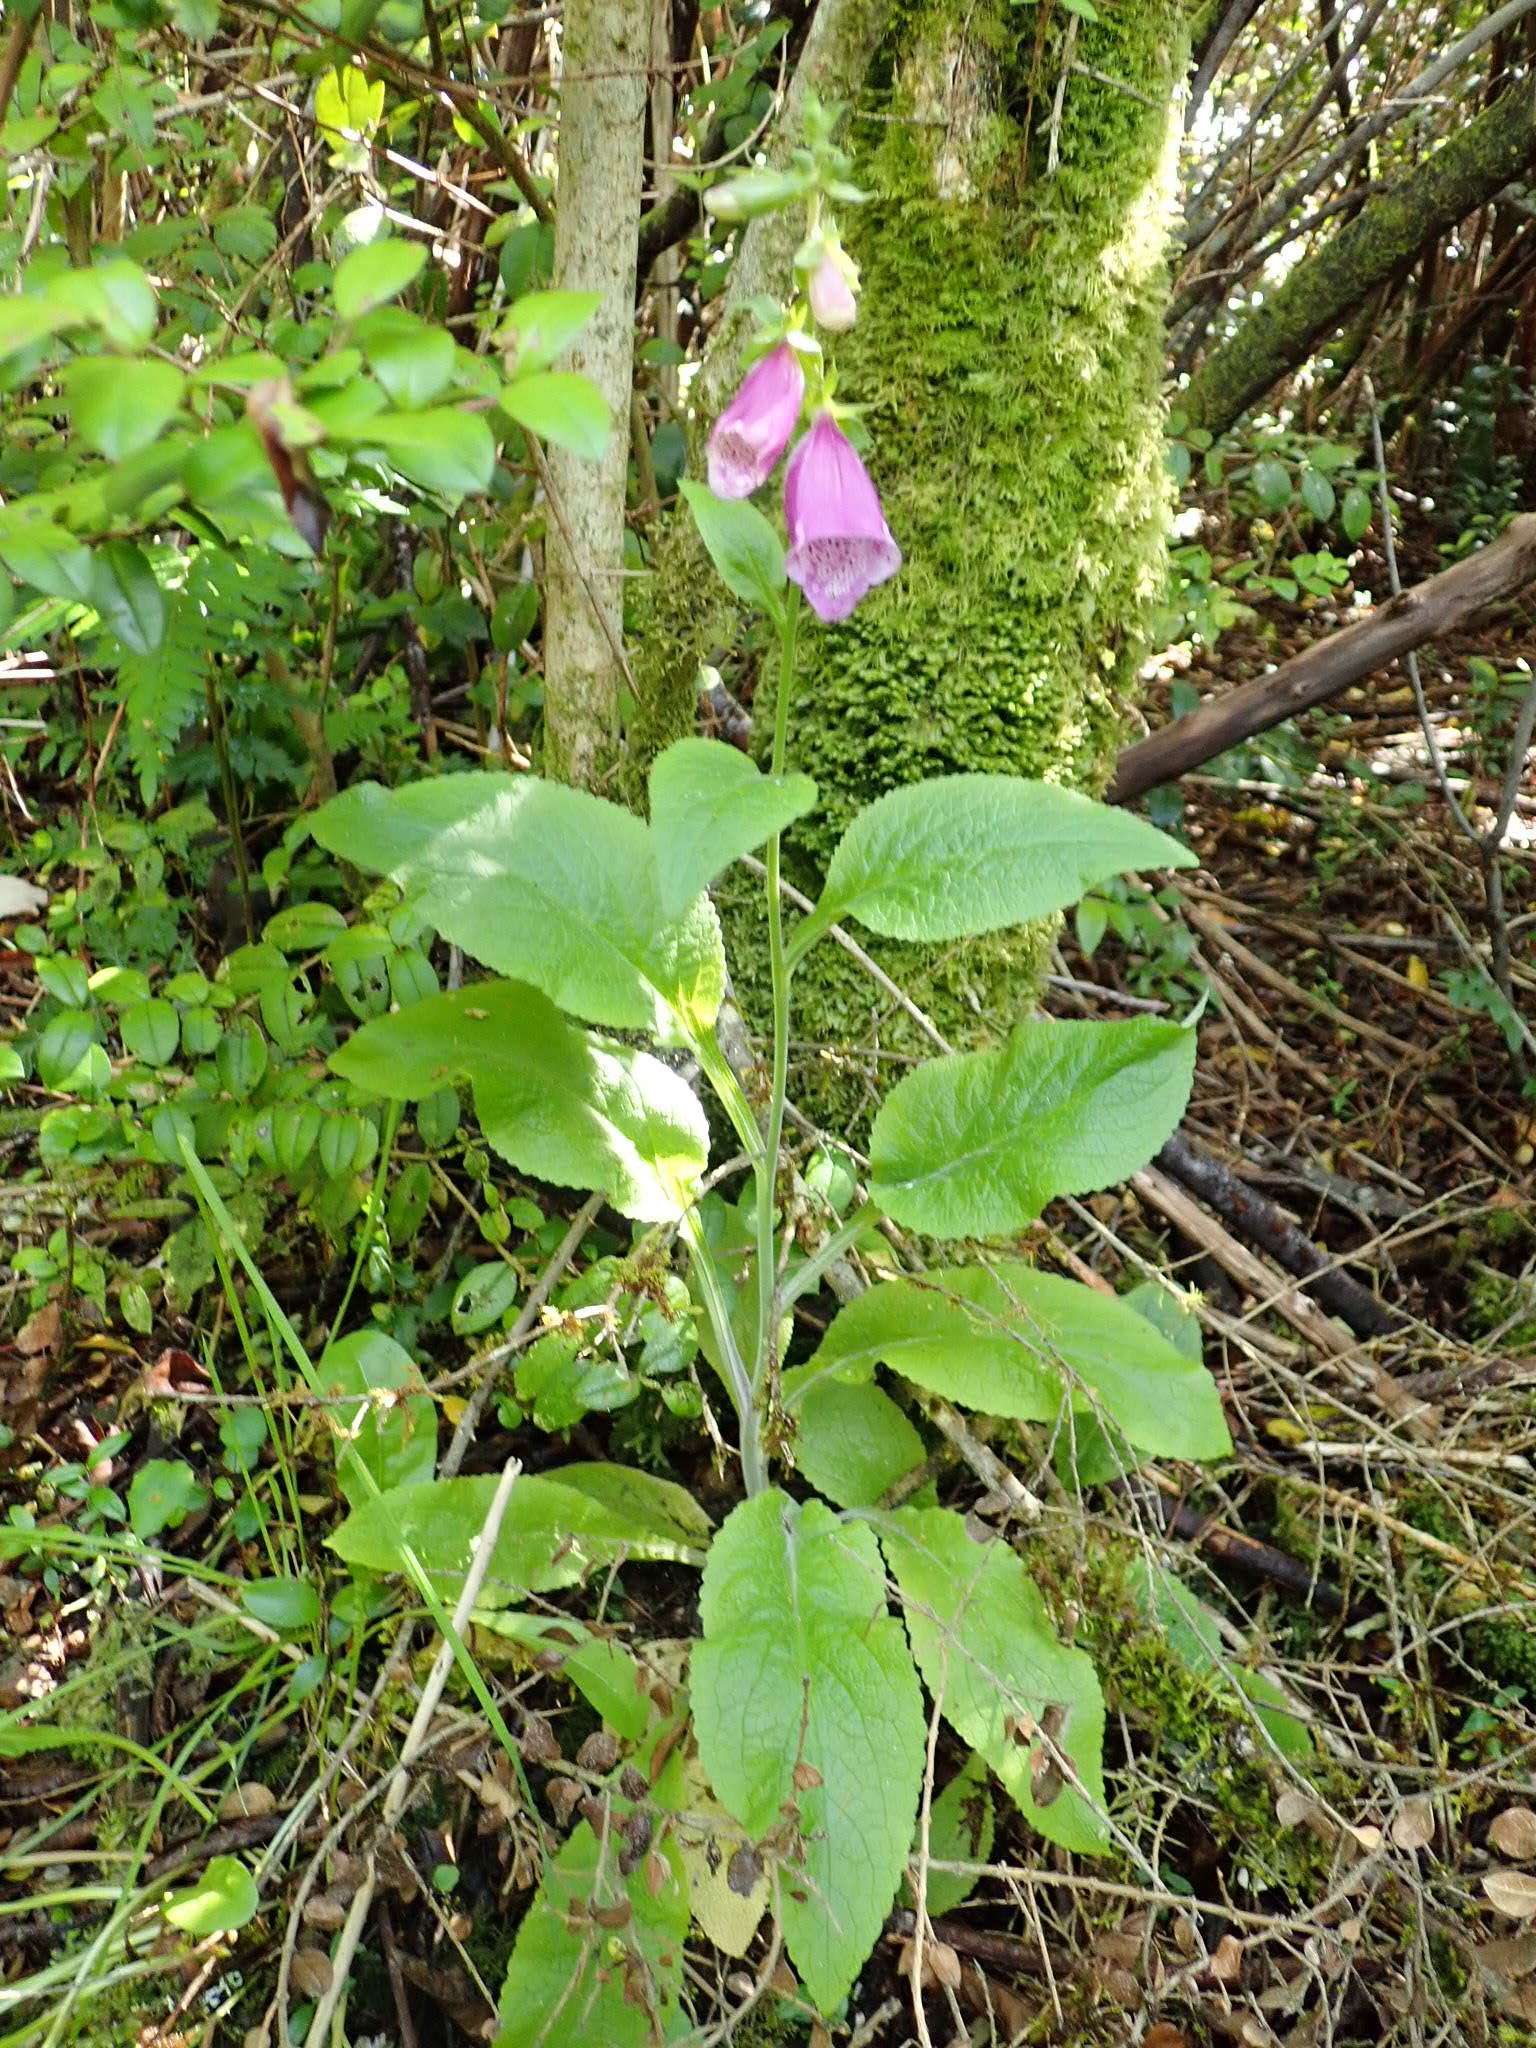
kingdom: Plantae
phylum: Tracheophyta
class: Magnoliopsida
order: Lamiales
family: Plantaginaceae
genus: Digitalis
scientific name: Digitalis purpurea
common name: Foxglove
